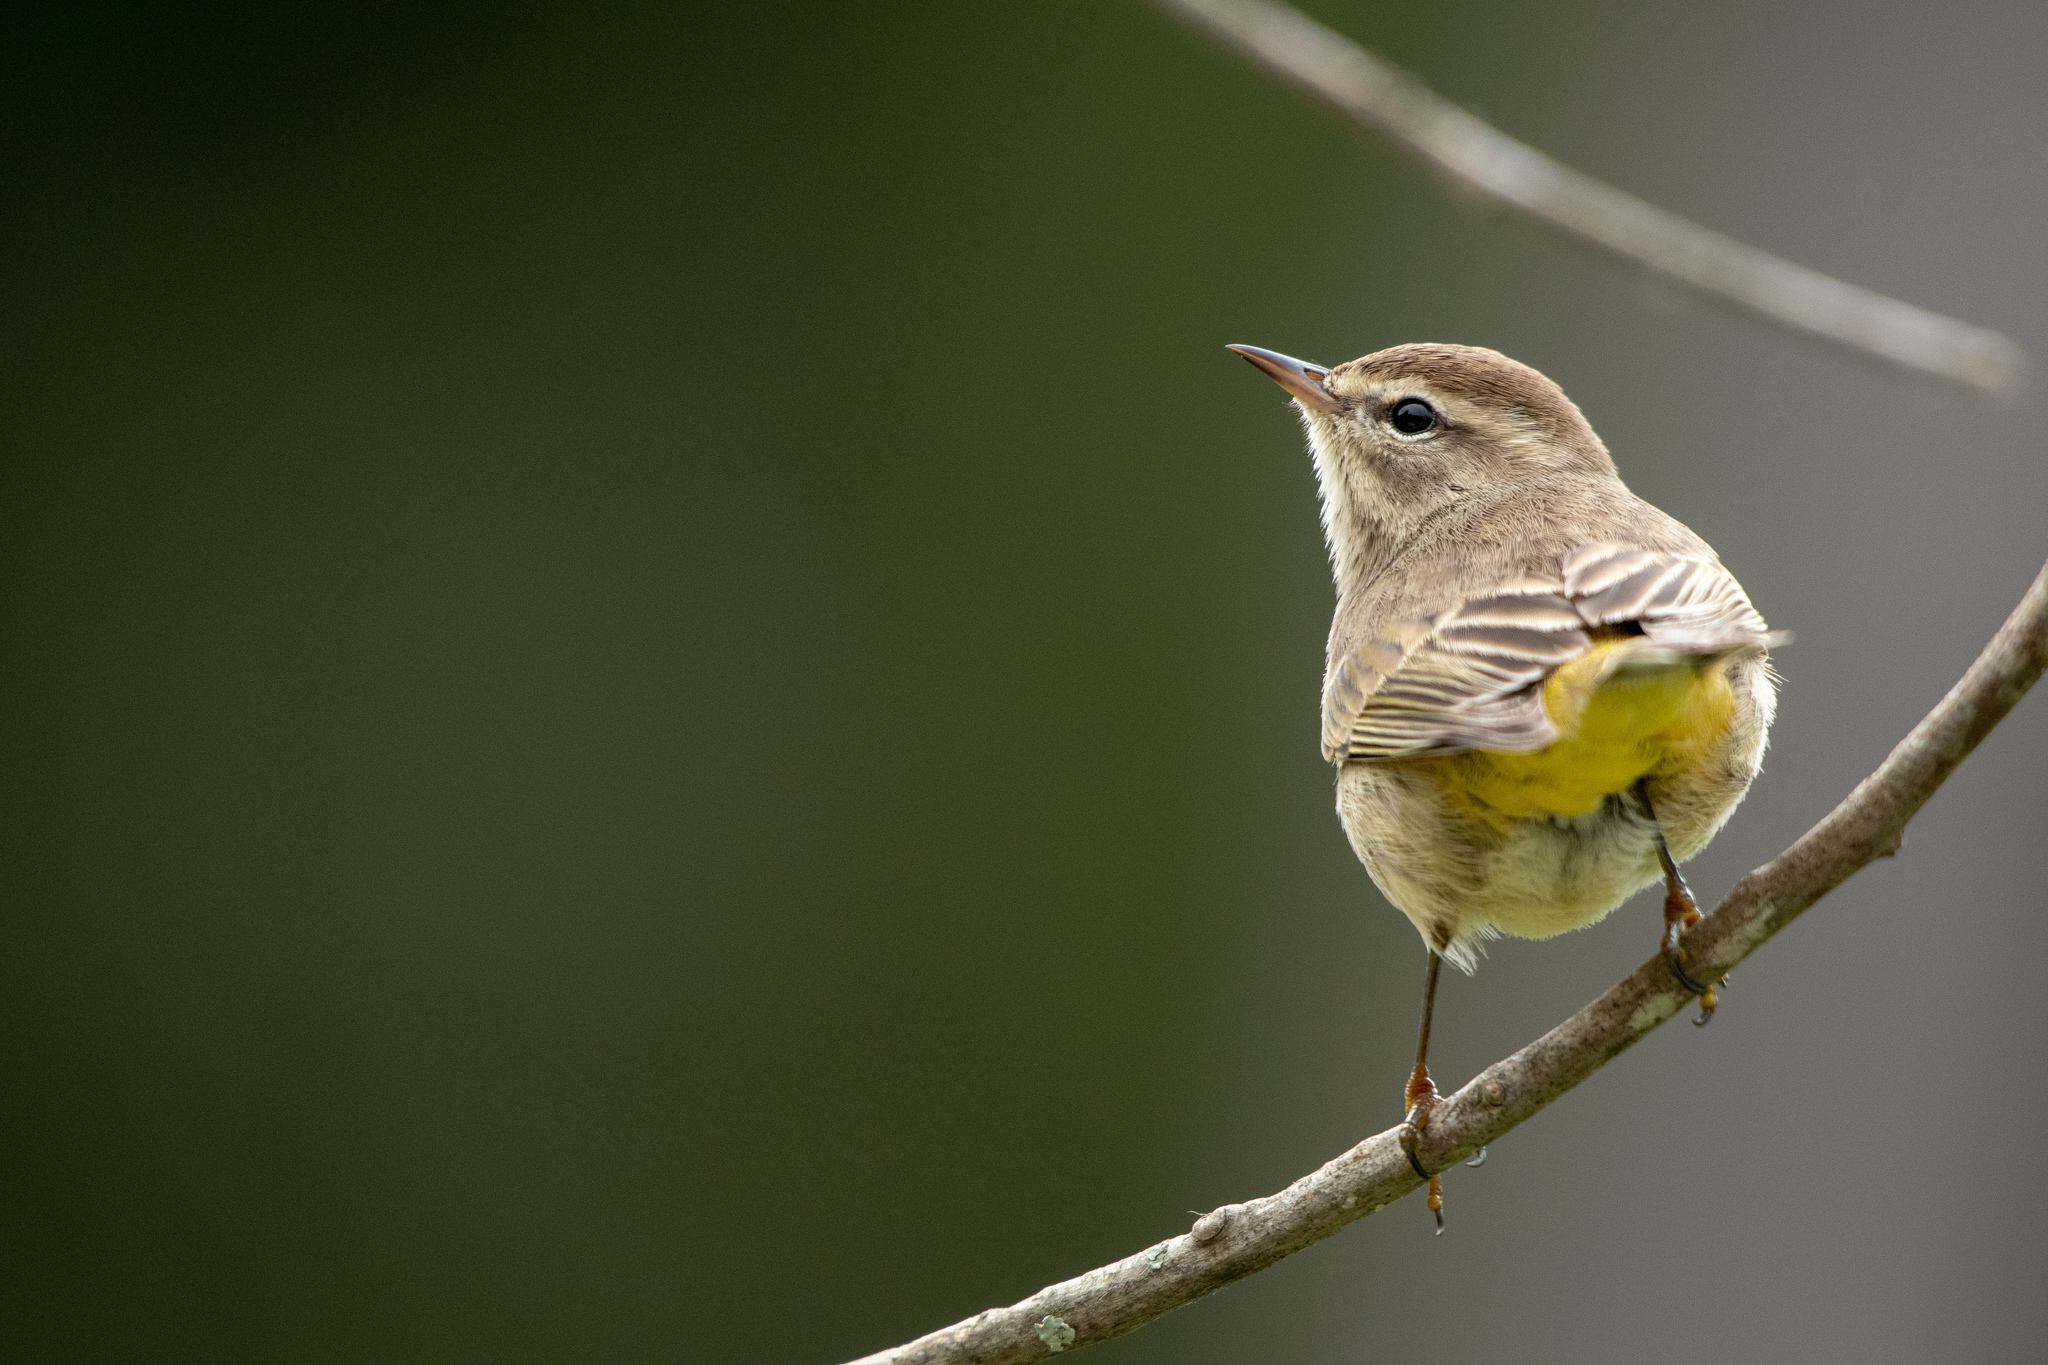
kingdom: Animalia
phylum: Chordata
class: Aves
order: Passeriformes
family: Parulidae
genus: Setophaga
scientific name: Setophaga palmarum
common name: Palm warbler
